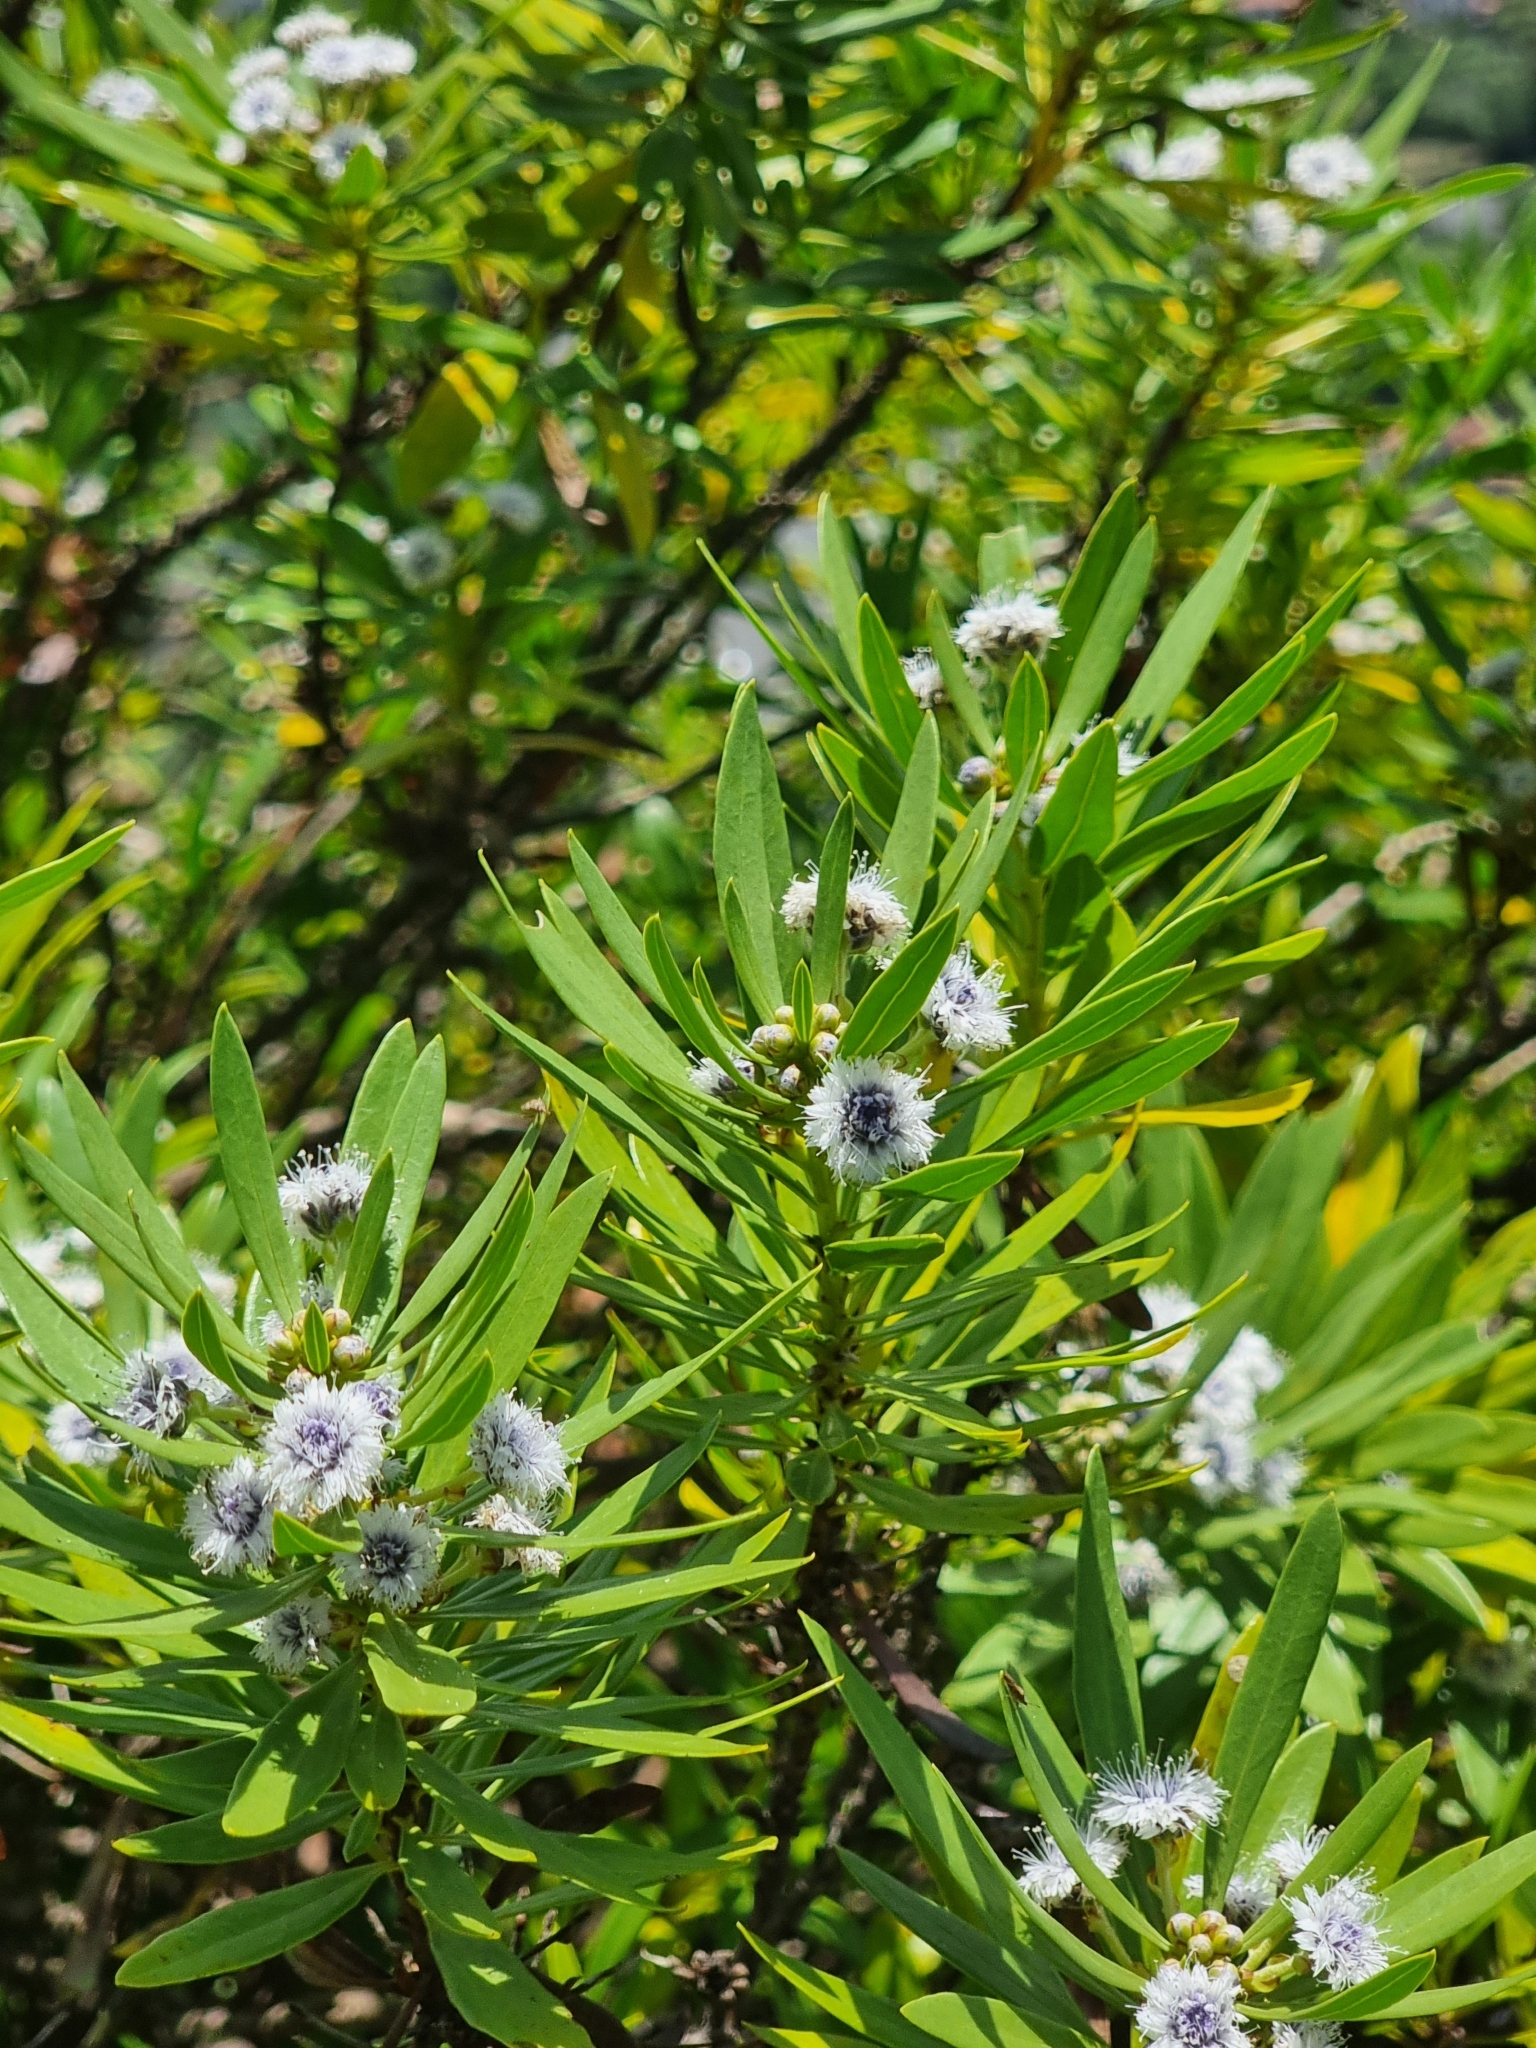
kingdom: Plantae
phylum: Tracheophyta
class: Magnoliopsida
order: Lamiales
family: Plantaginaceae
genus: Globularia
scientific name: Globularia salicina
